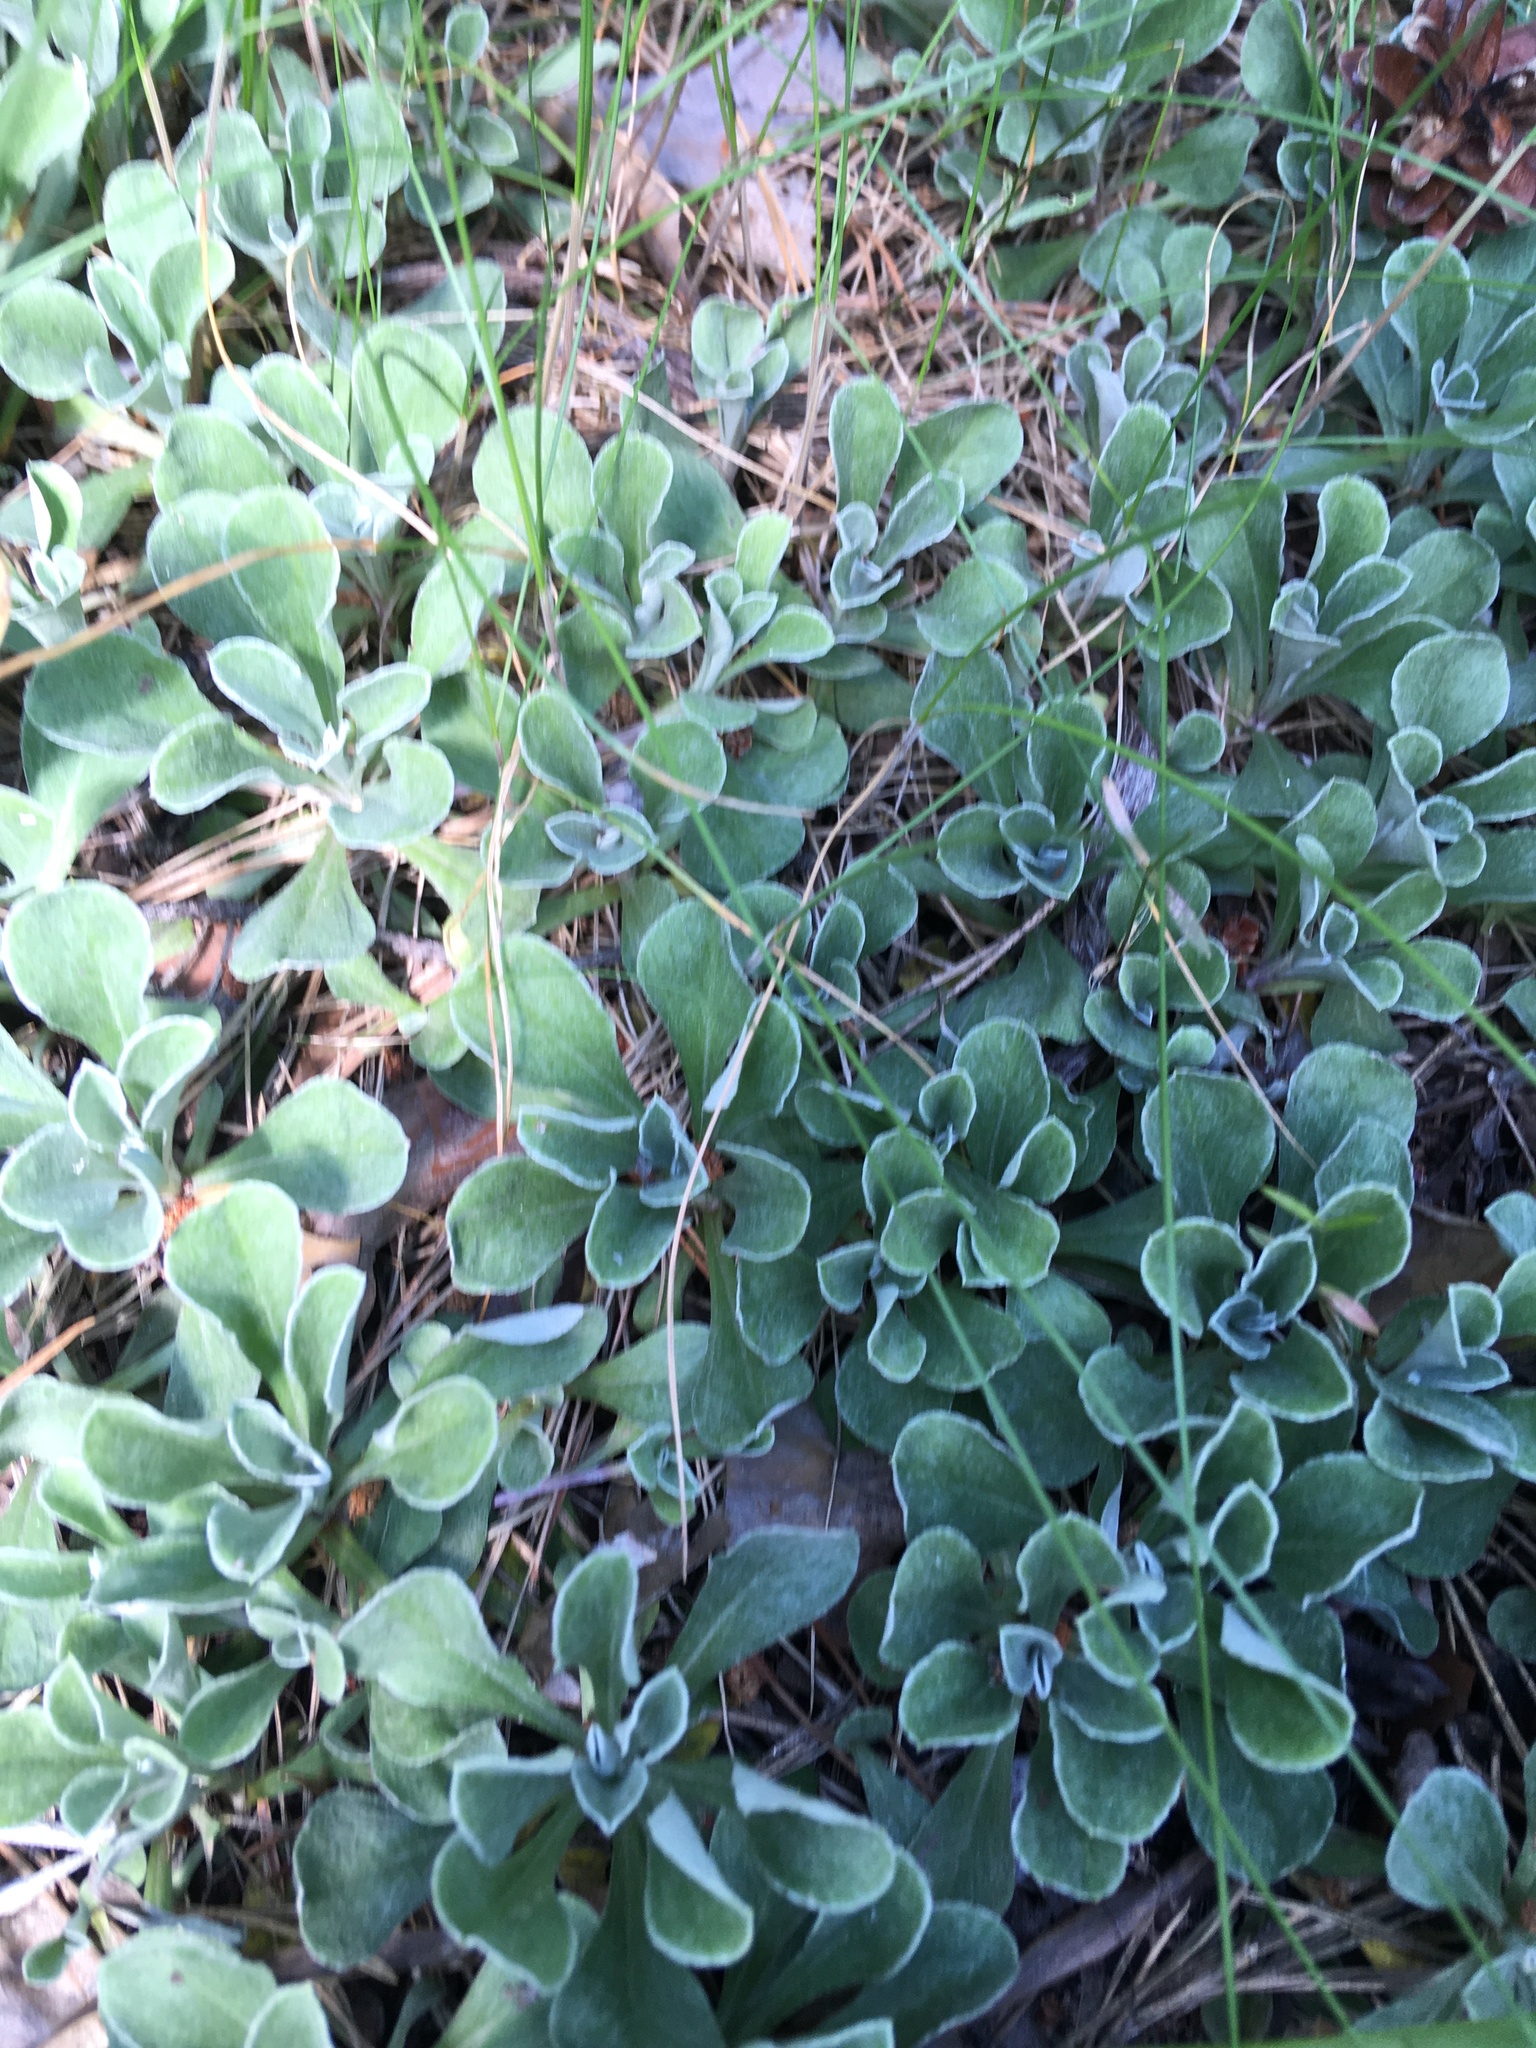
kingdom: Plantae
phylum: Tracheophyta
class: Magnoliopsida
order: Asterales
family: Asteraceae
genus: Antennaria
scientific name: Antennaria dioica
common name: Mountain everlasting
